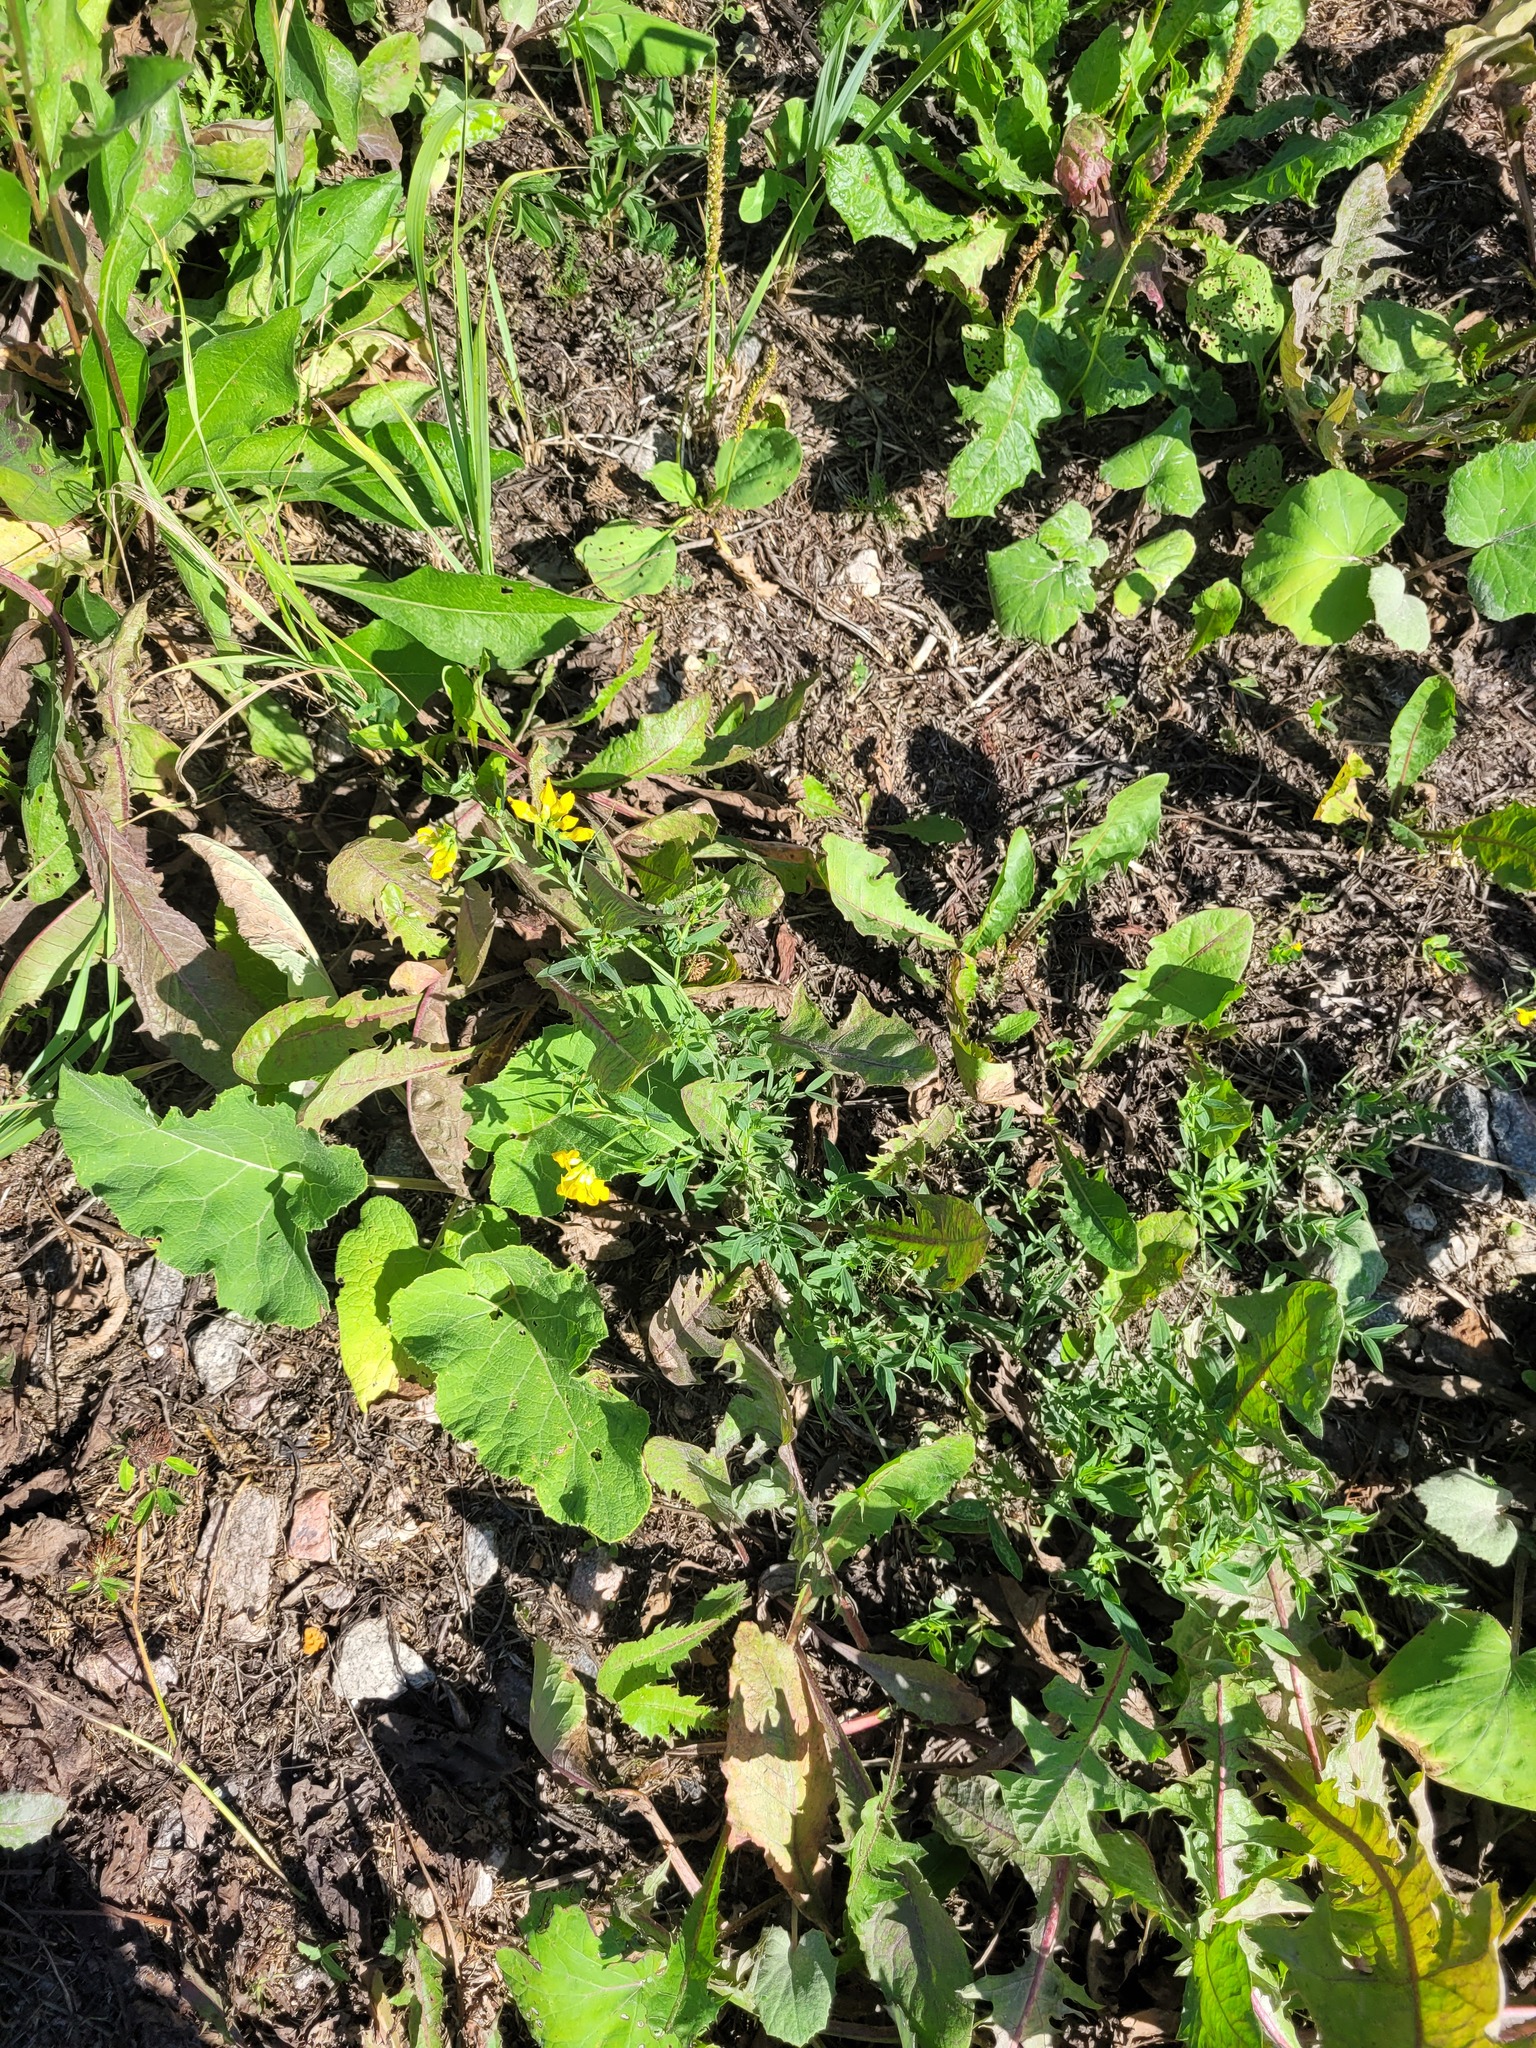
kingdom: Plantae
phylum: Tracheophyta
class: Magnoliopsida
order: Fabales
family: Fabaceae
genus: Lathyrus
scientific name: Lathyrus pratensis
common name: Meadow vetchling
